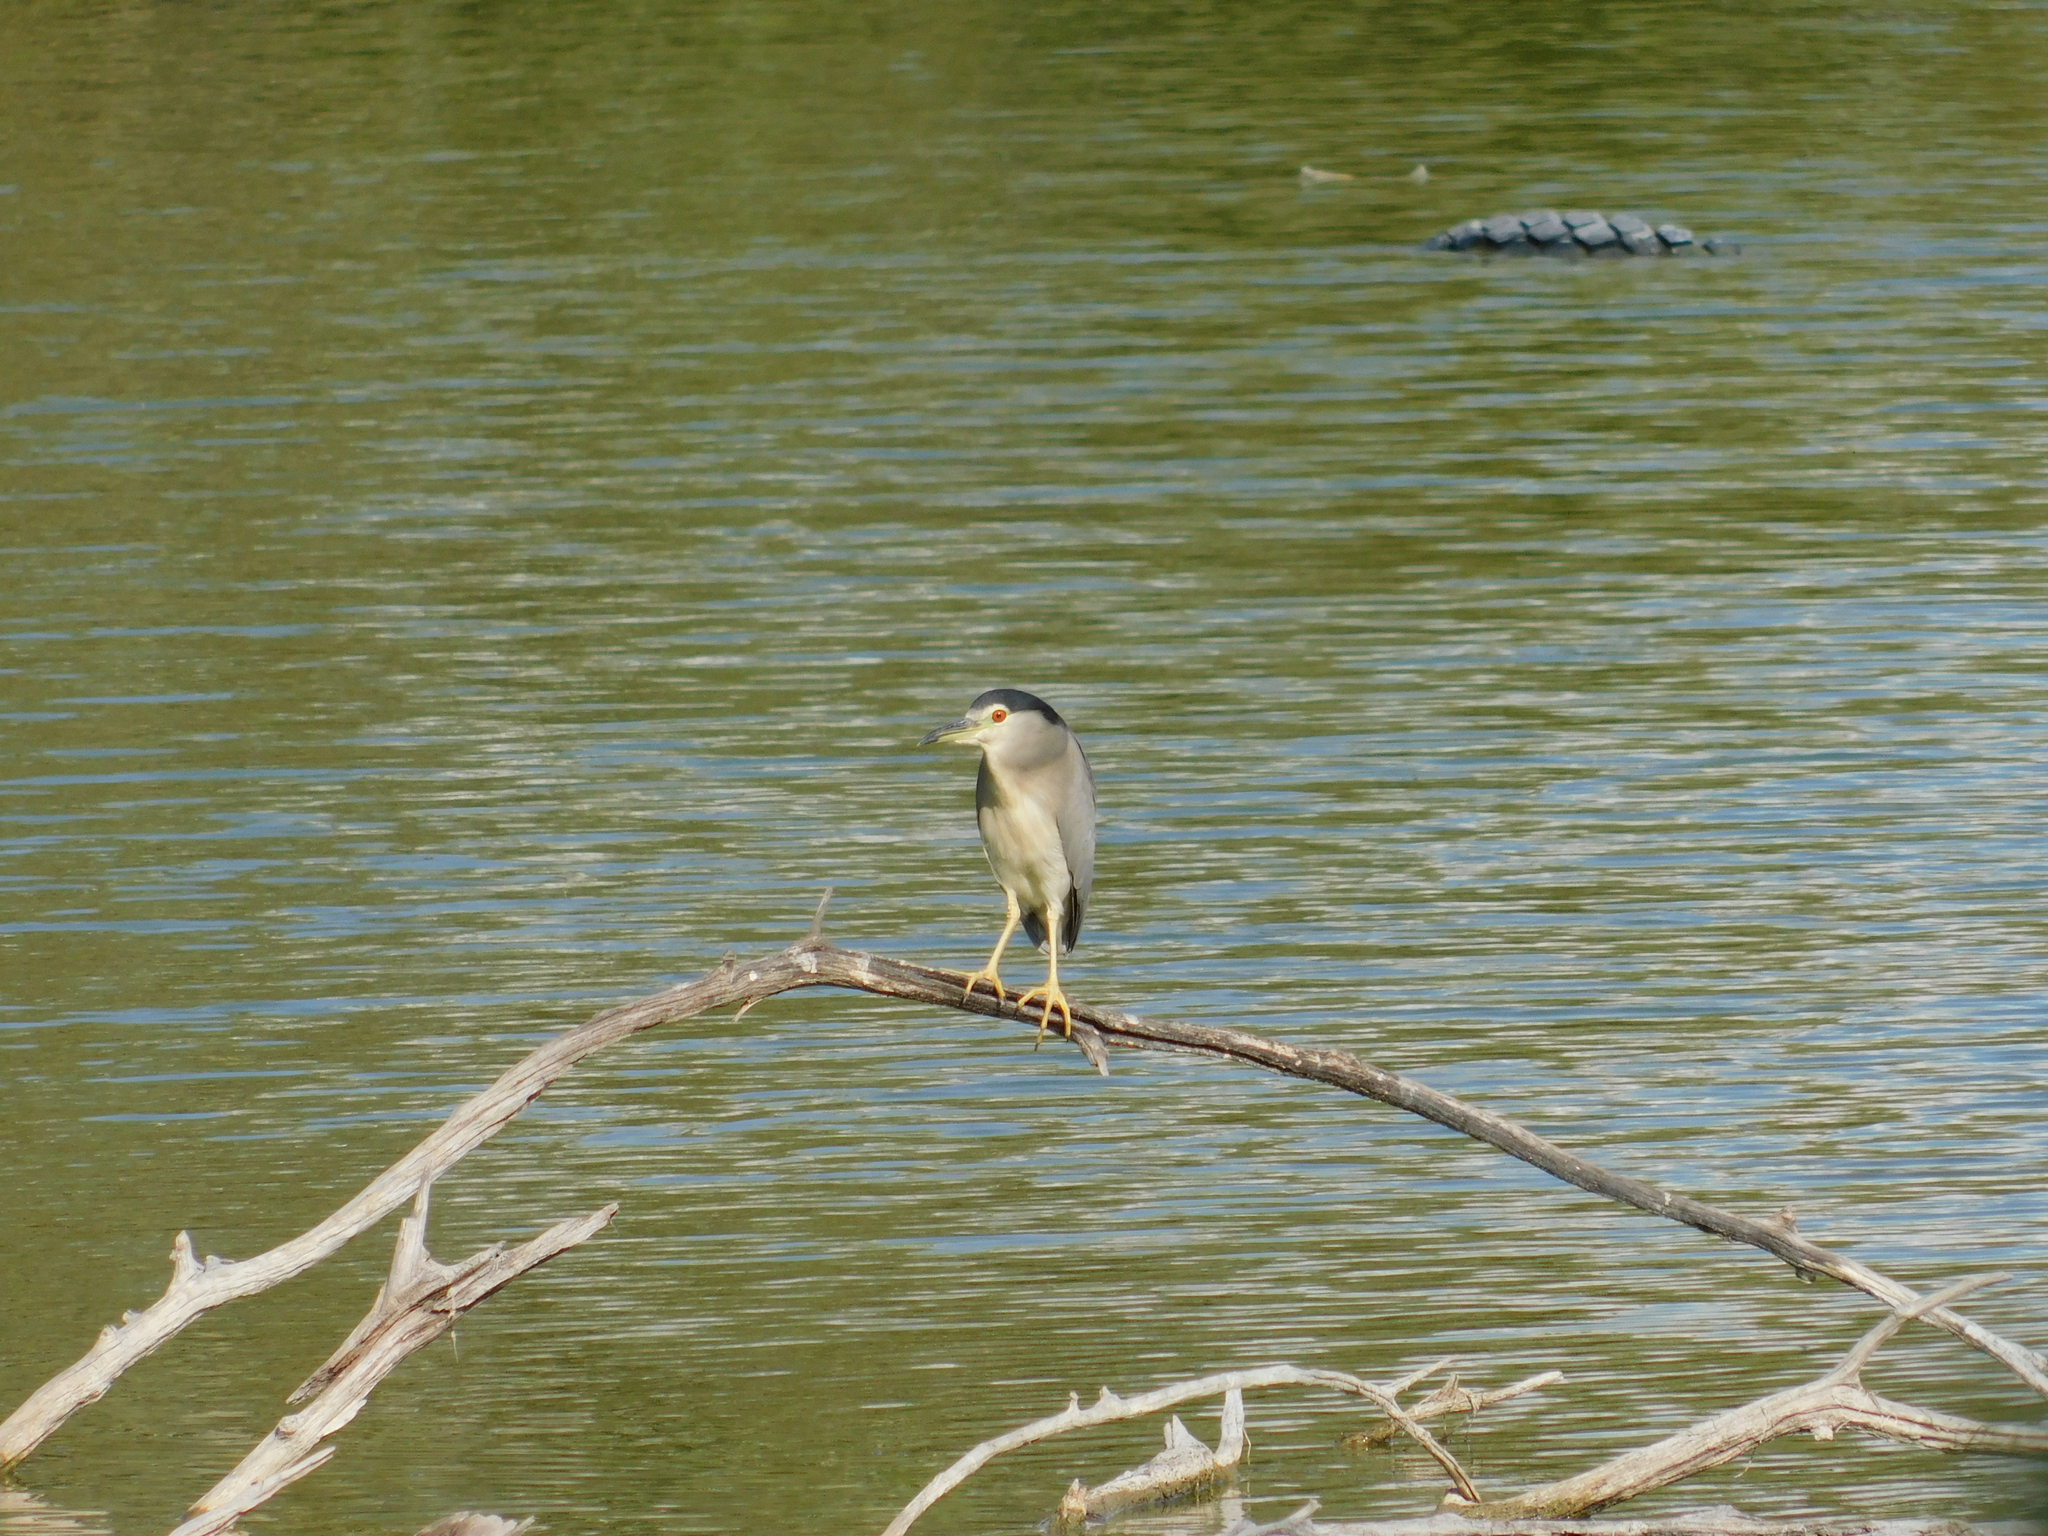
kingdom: Animalia
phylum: Chordata
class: Aves
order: Pelecaniformes
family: Ardeidae
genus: Nycticorax
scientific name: Nycticorax nycticorax
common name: Black-crowned night heron
